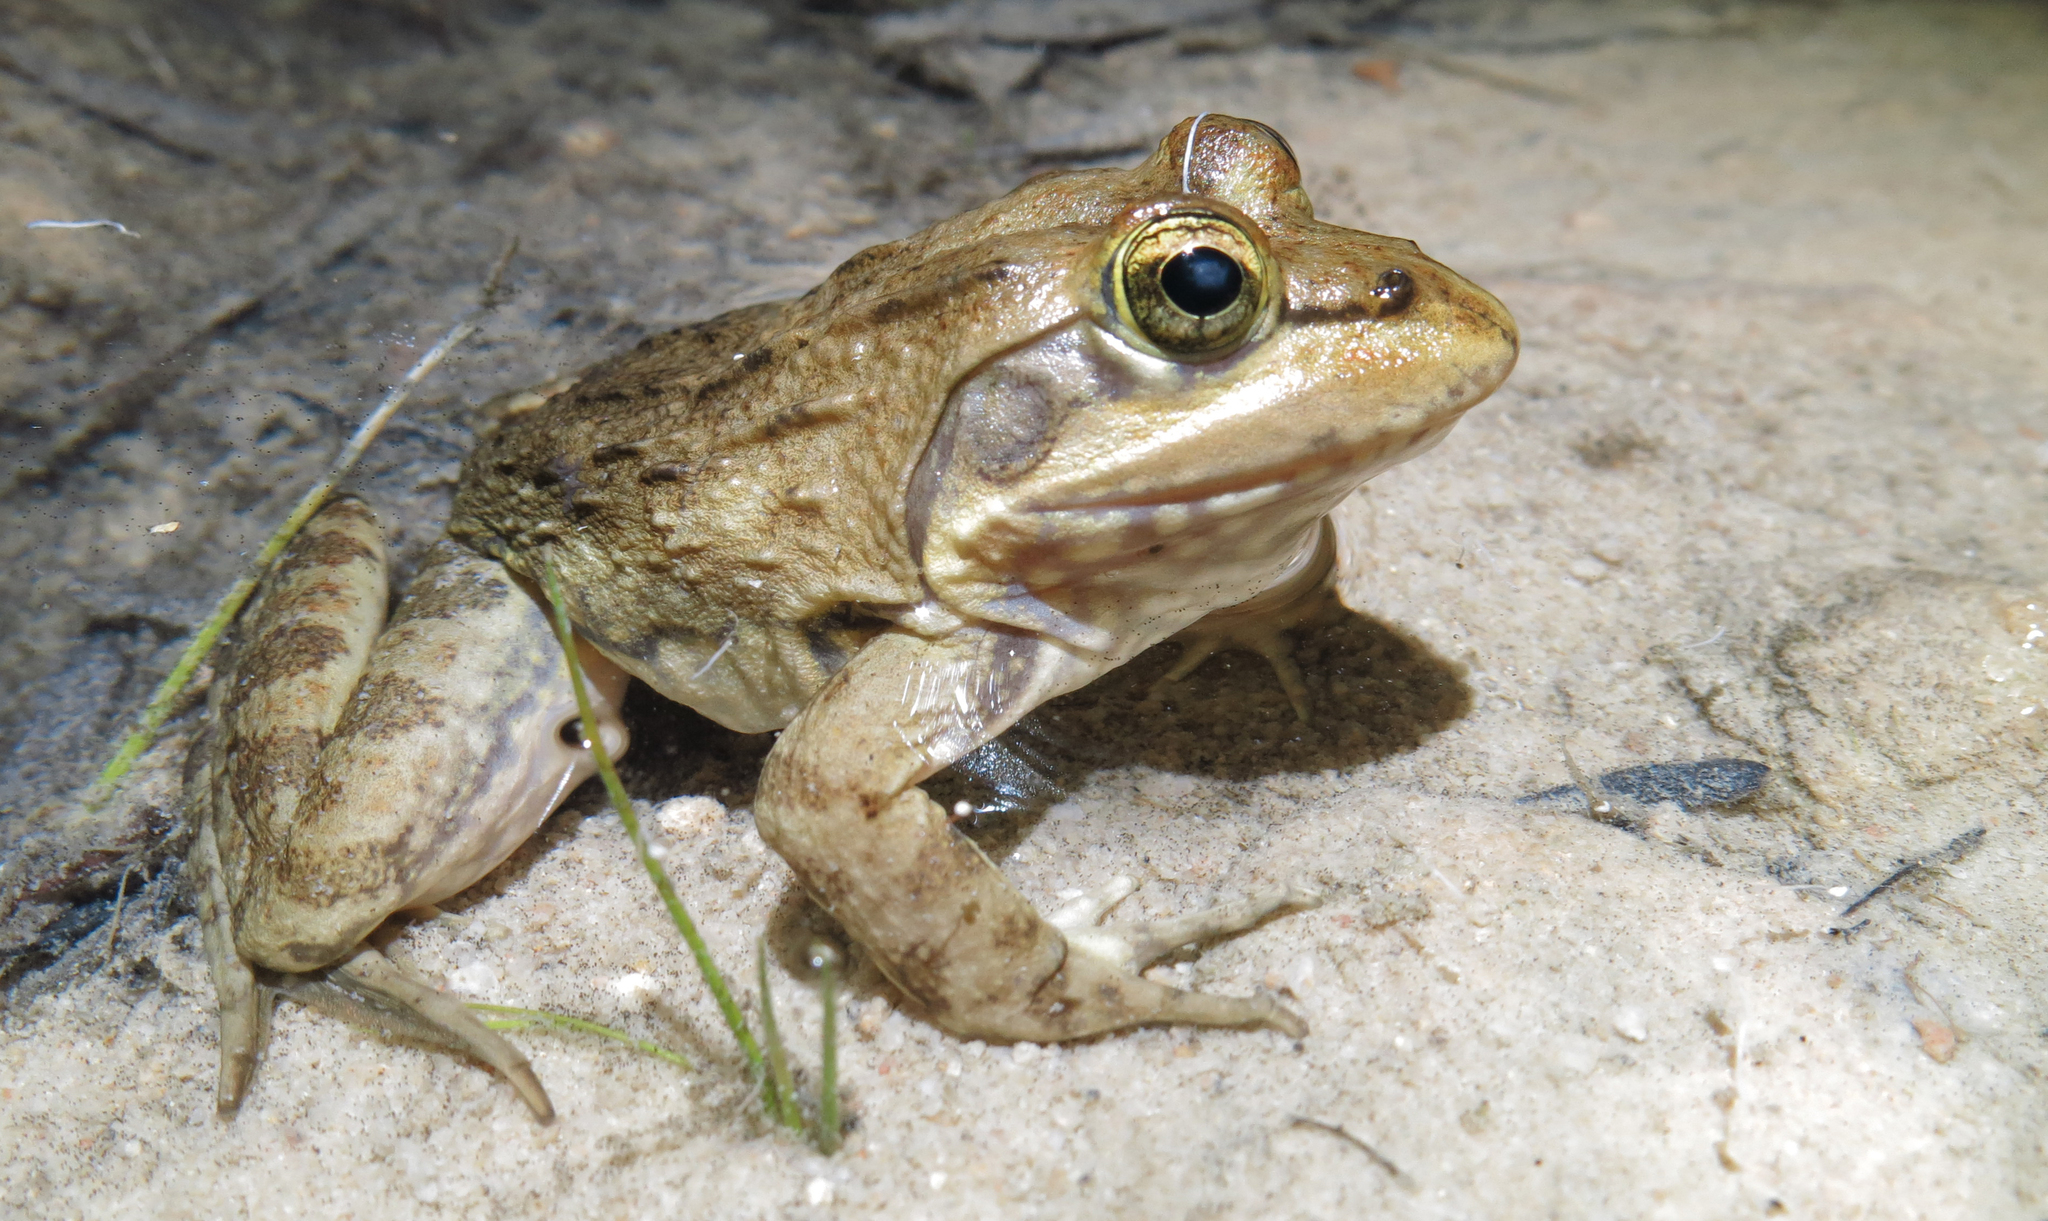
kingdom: Animalia
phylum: Chordata
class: Amphibia
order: Anura
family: Pyxicephalidae
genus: Amietia
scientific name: Amietia fuscigula
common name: Cape rana
